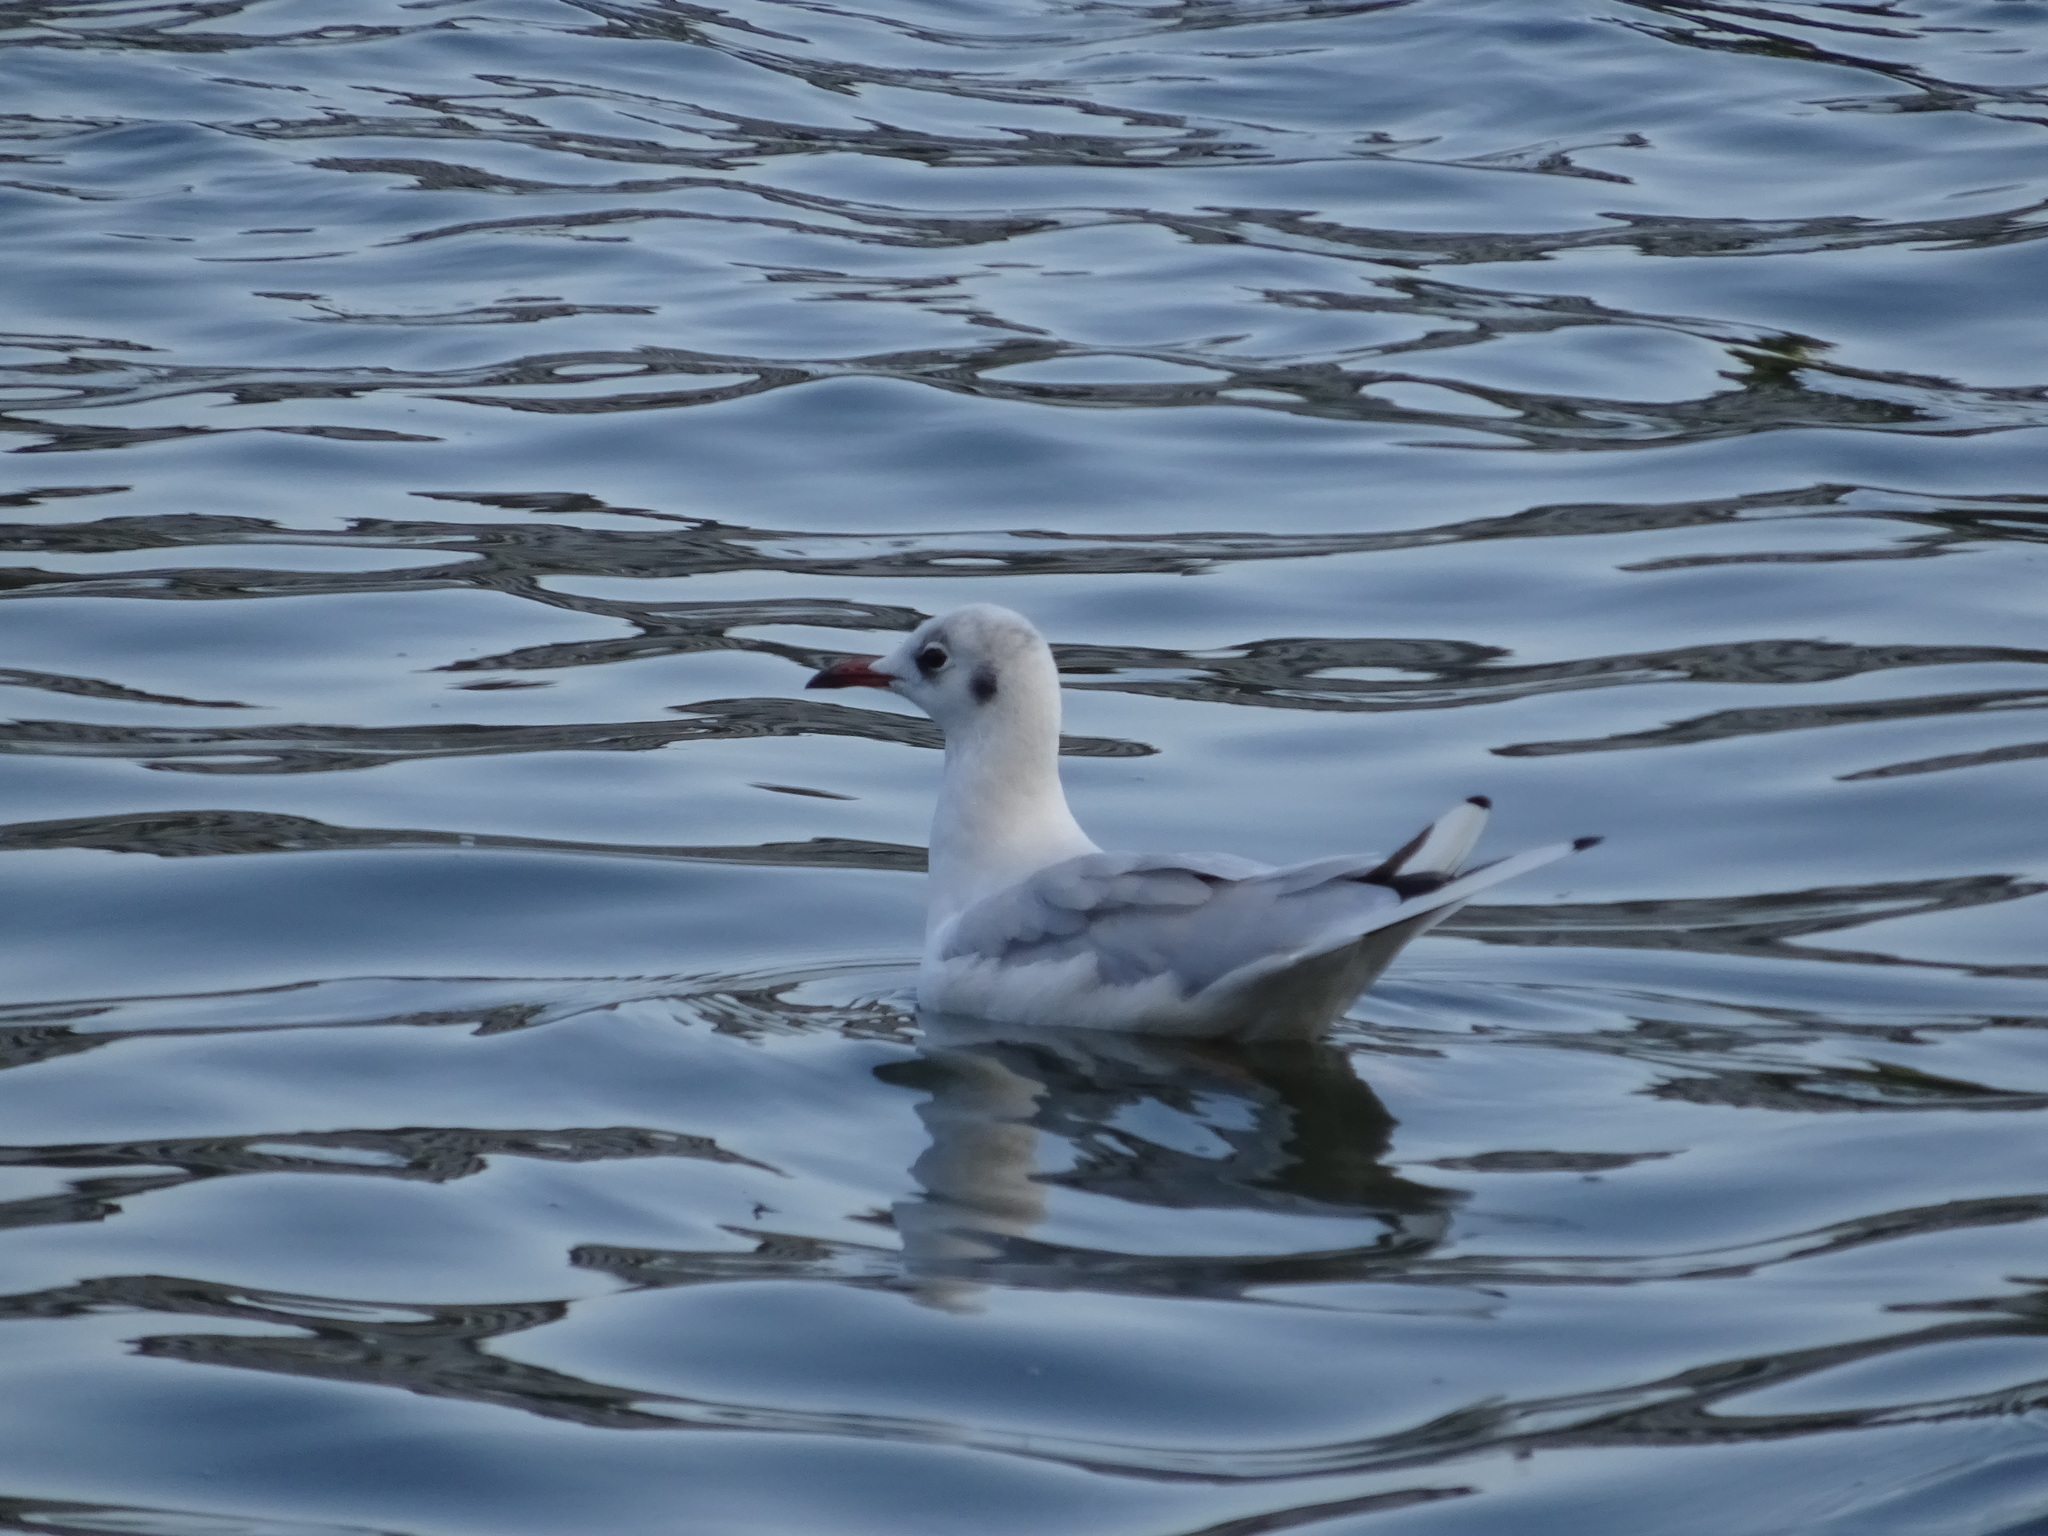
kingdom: Animalia
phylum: Chordata
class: Aves
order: Charadriiformes
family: Laridae
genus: Chroicocephalus
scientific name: Chroicocephalus ridibundus
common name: Black-headed gull
